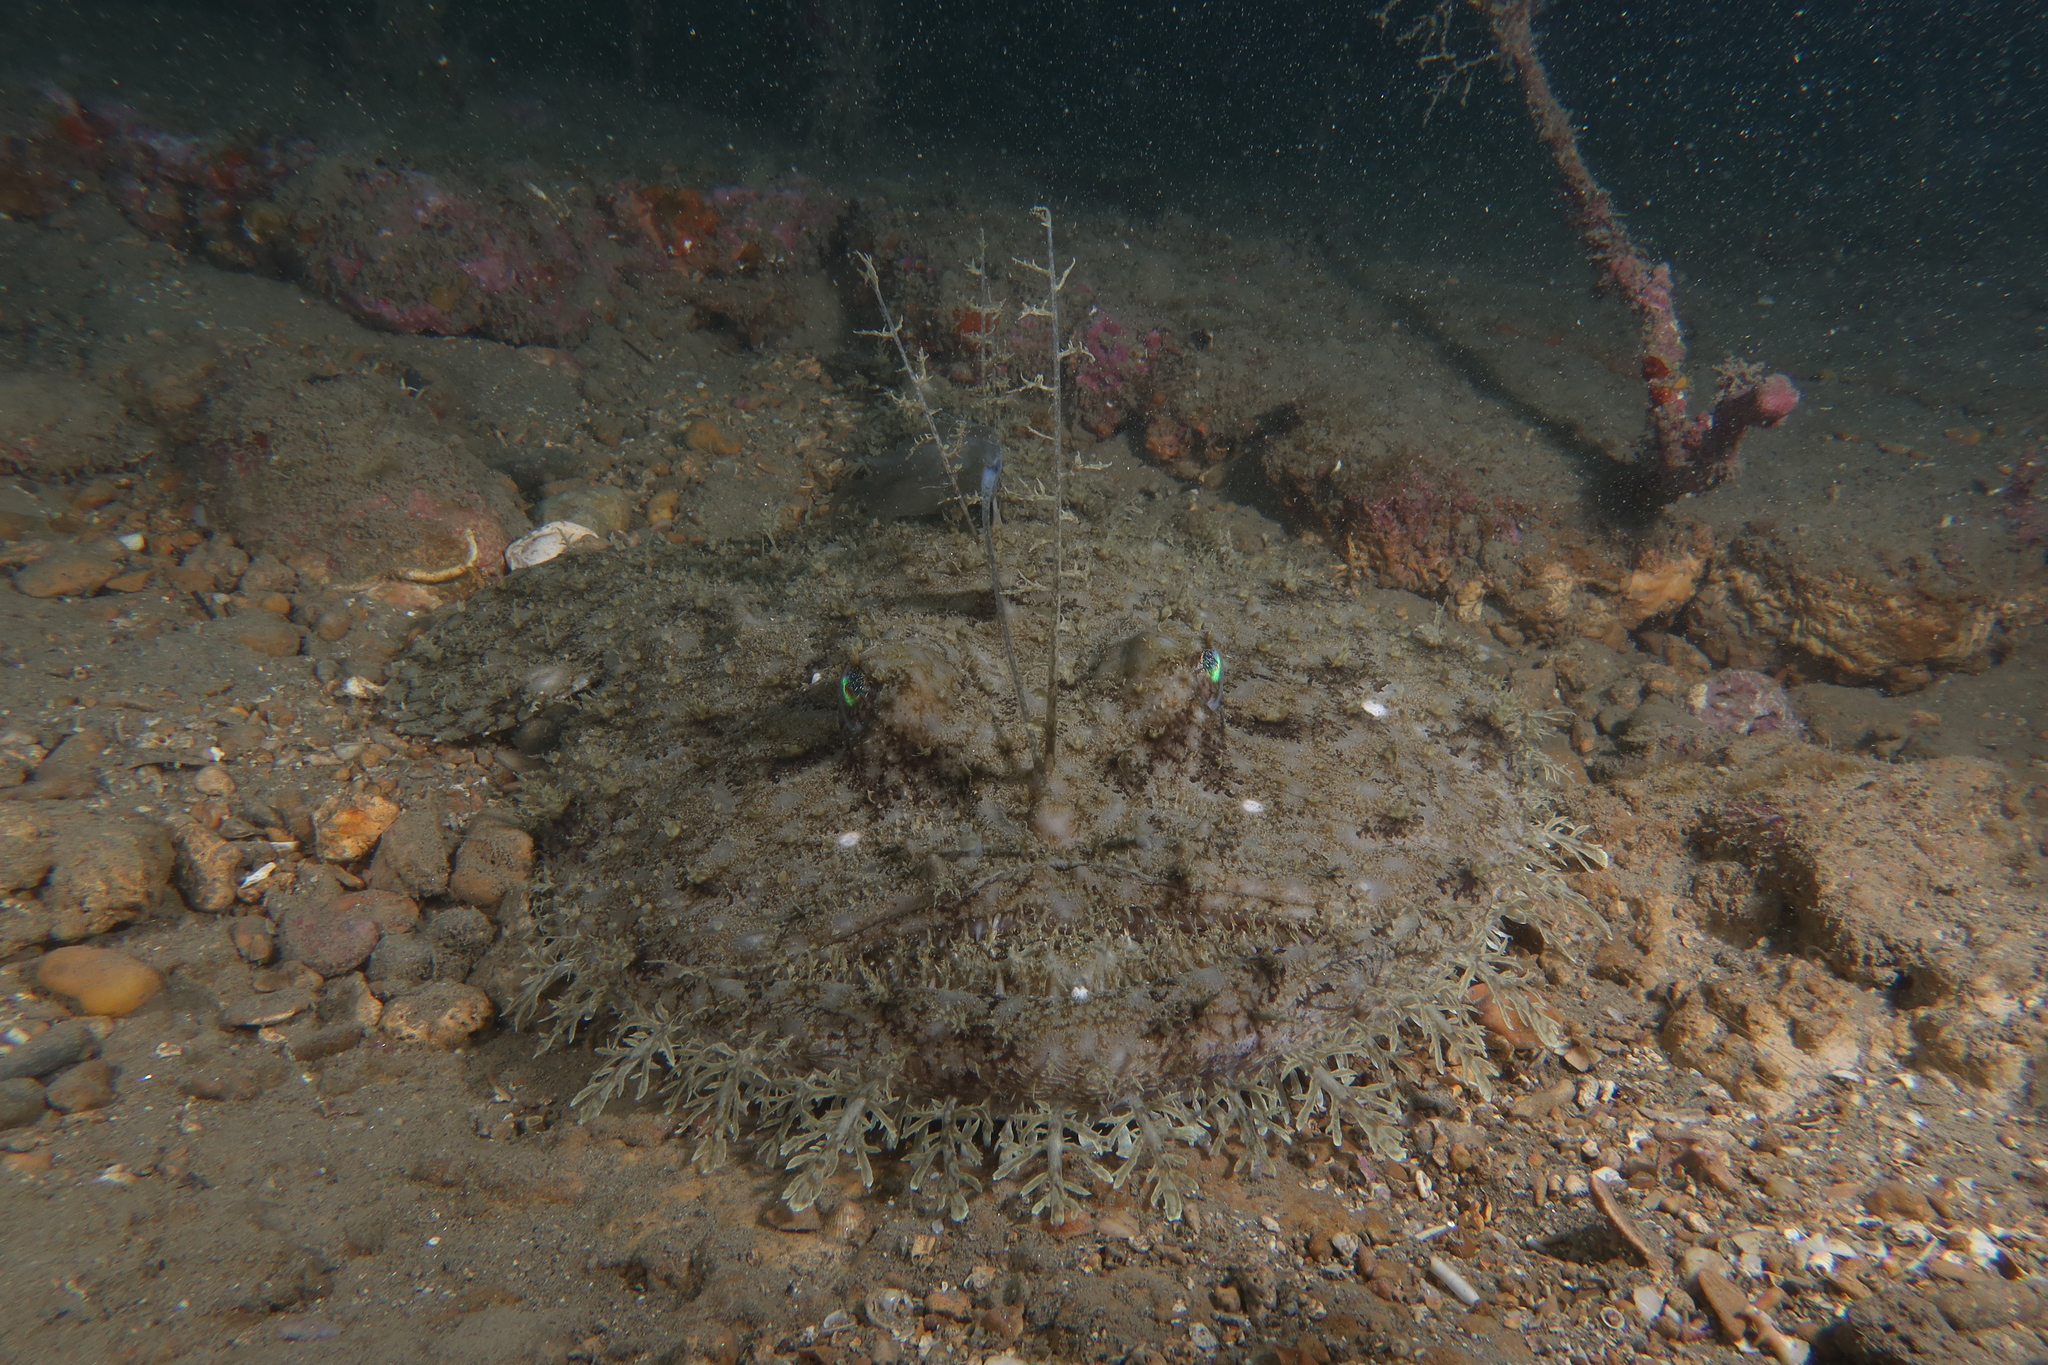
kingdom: Animalia
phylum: Chordata
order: Lophiiformes
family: Lophiidae
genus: Lophius
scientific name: Lophius piscatorius
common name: Angler
